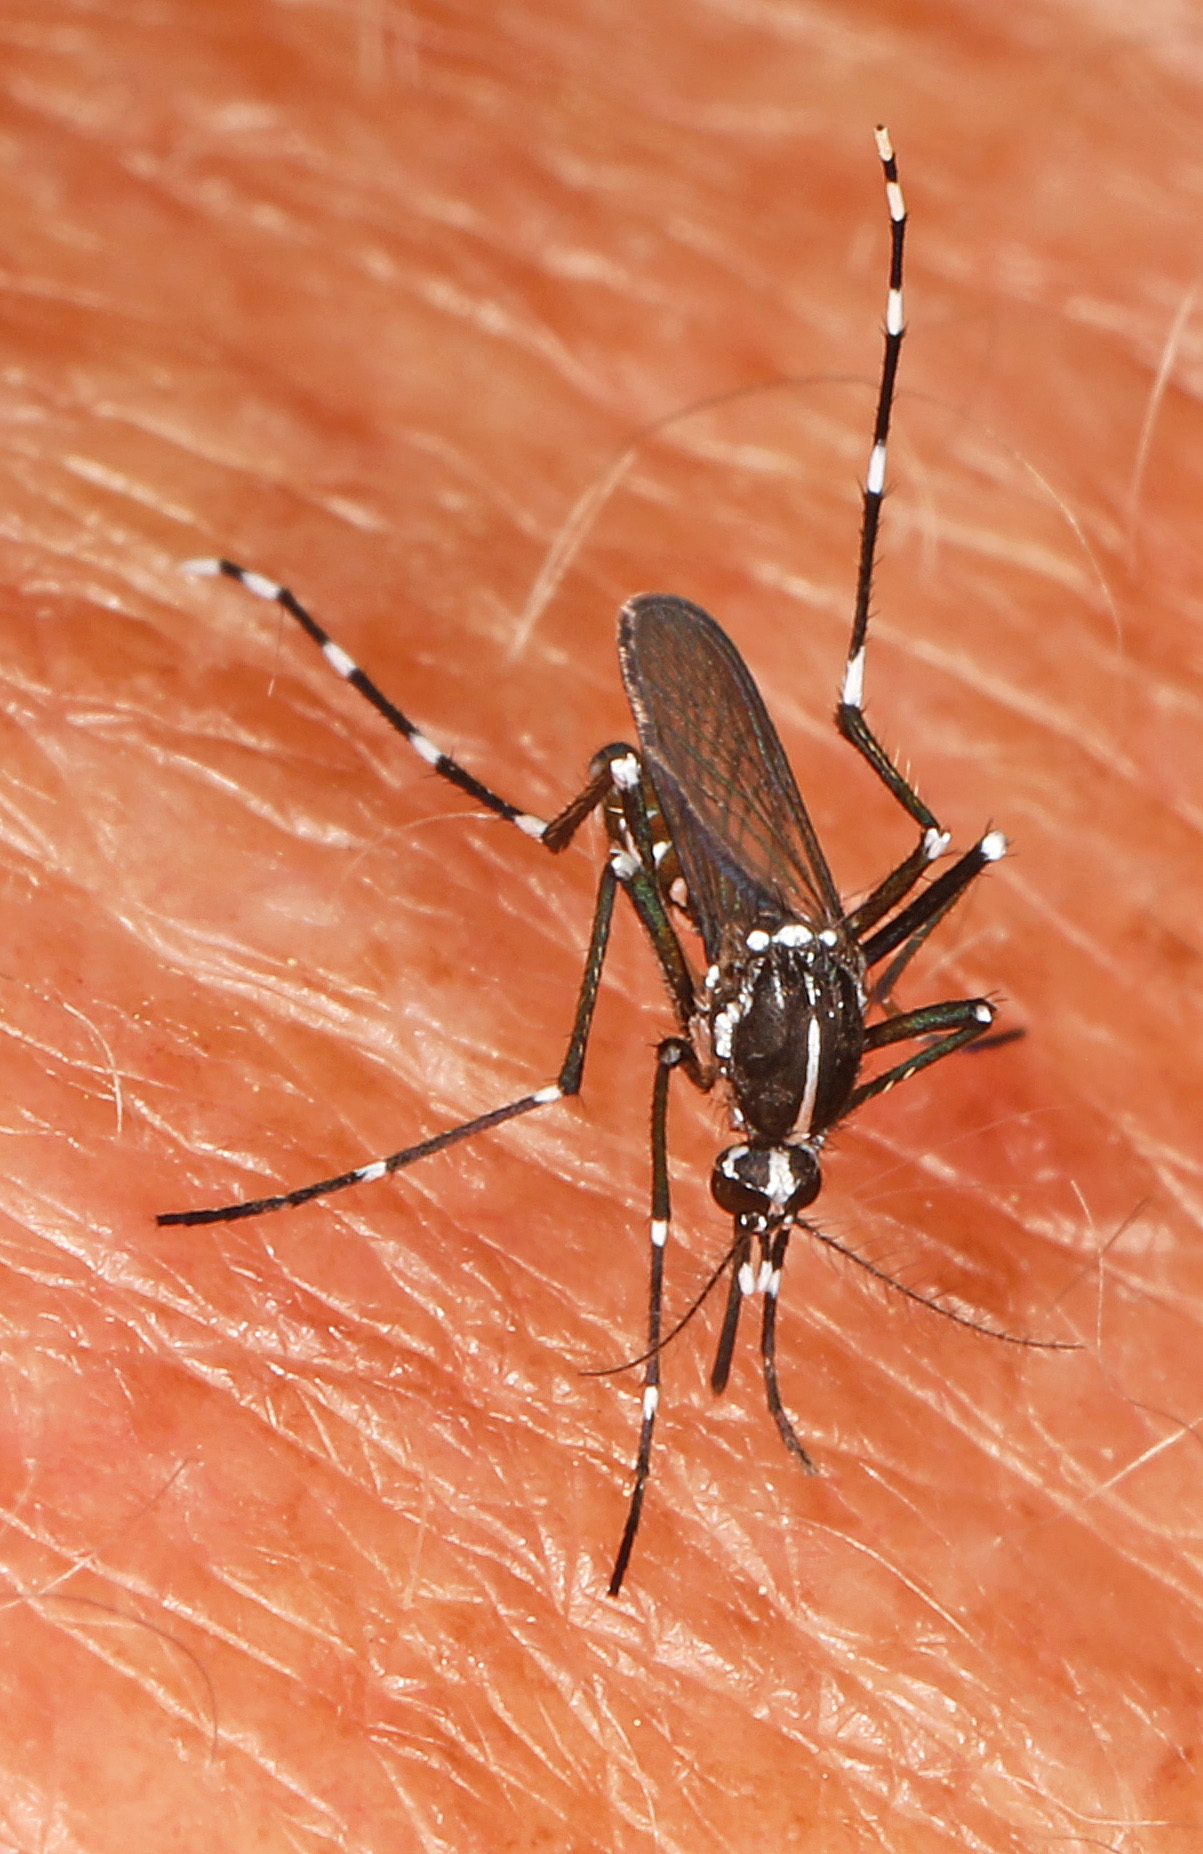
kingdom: Animalia
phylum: Arthropoda
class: Insecta
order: Diptera
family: Culicidae
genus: Aedes
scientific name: Aedes albopictus
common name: Tiger mosquito
